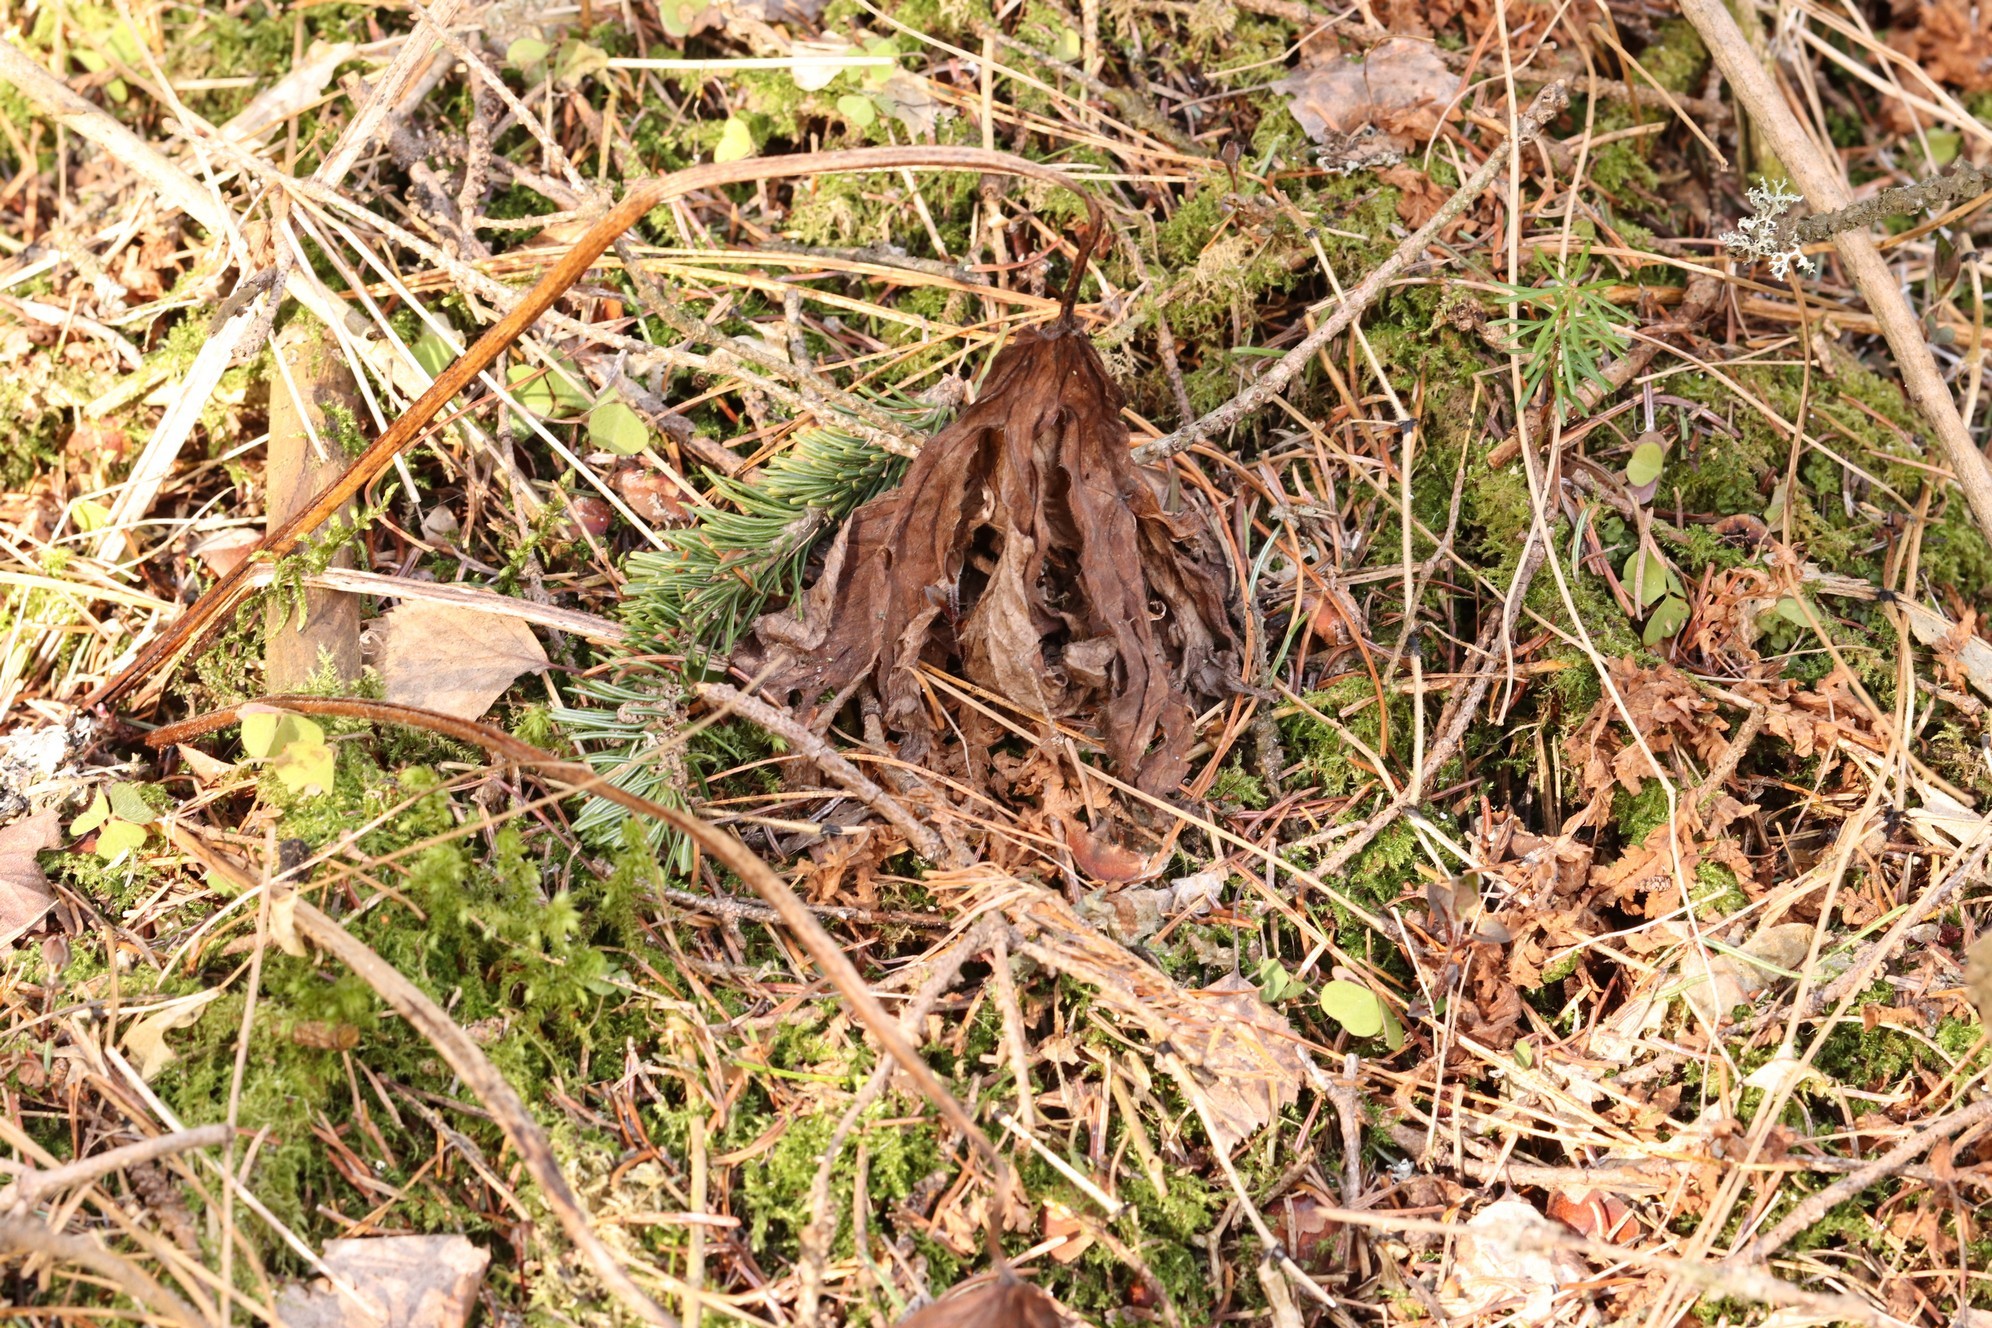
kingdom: Plantae
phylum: Tracheophyta
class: Magnoliopsida
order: Ranunculales
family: Ranunculaceae
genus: Aconitum
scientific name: Aconitum septentrionale
